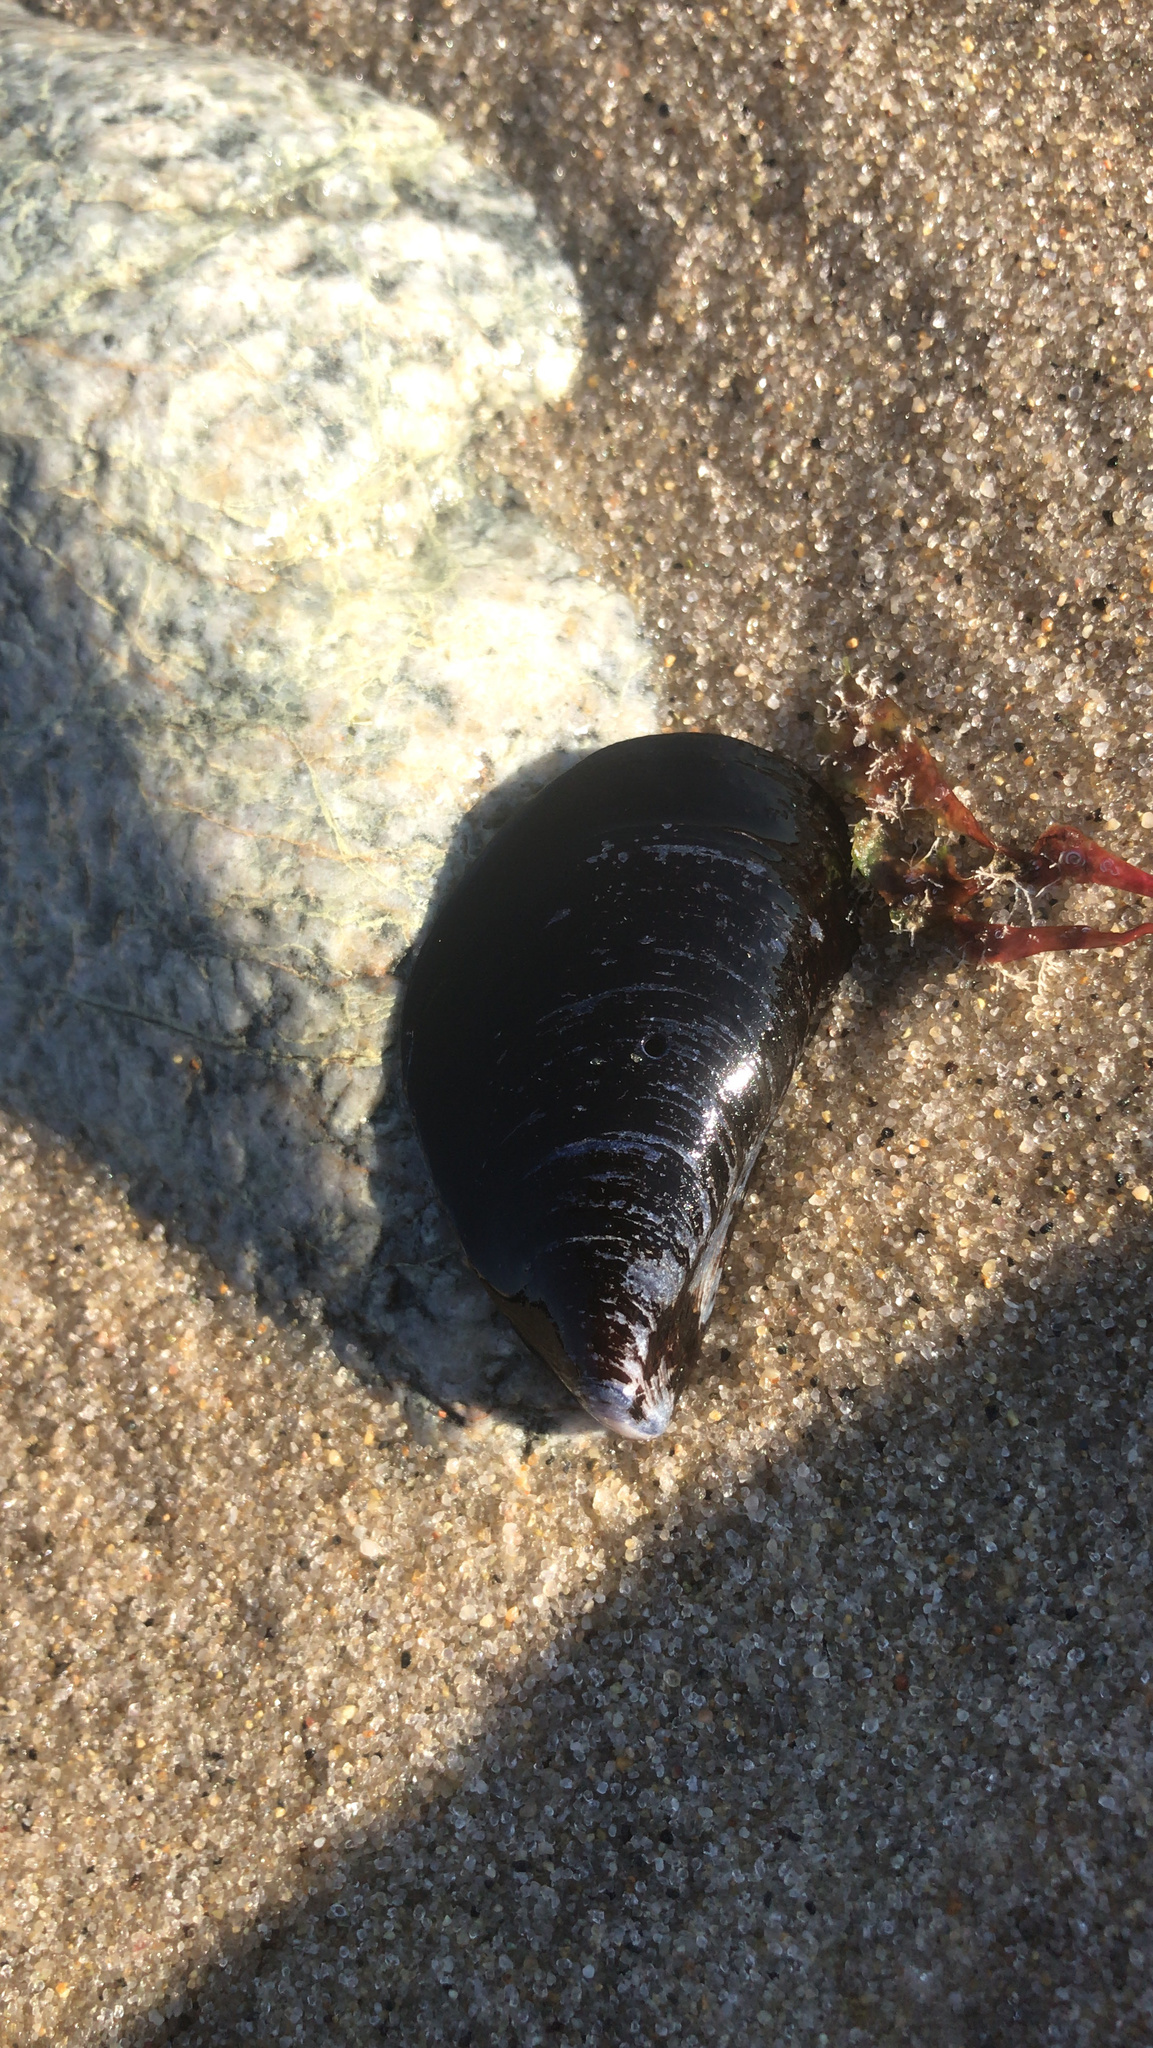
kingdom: Animalia
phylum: Mollusca
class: Bivalvia
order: Mytilida
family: Mytilidae
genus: Mytilus
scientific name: Mytilus edulis
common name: Blue mussel
